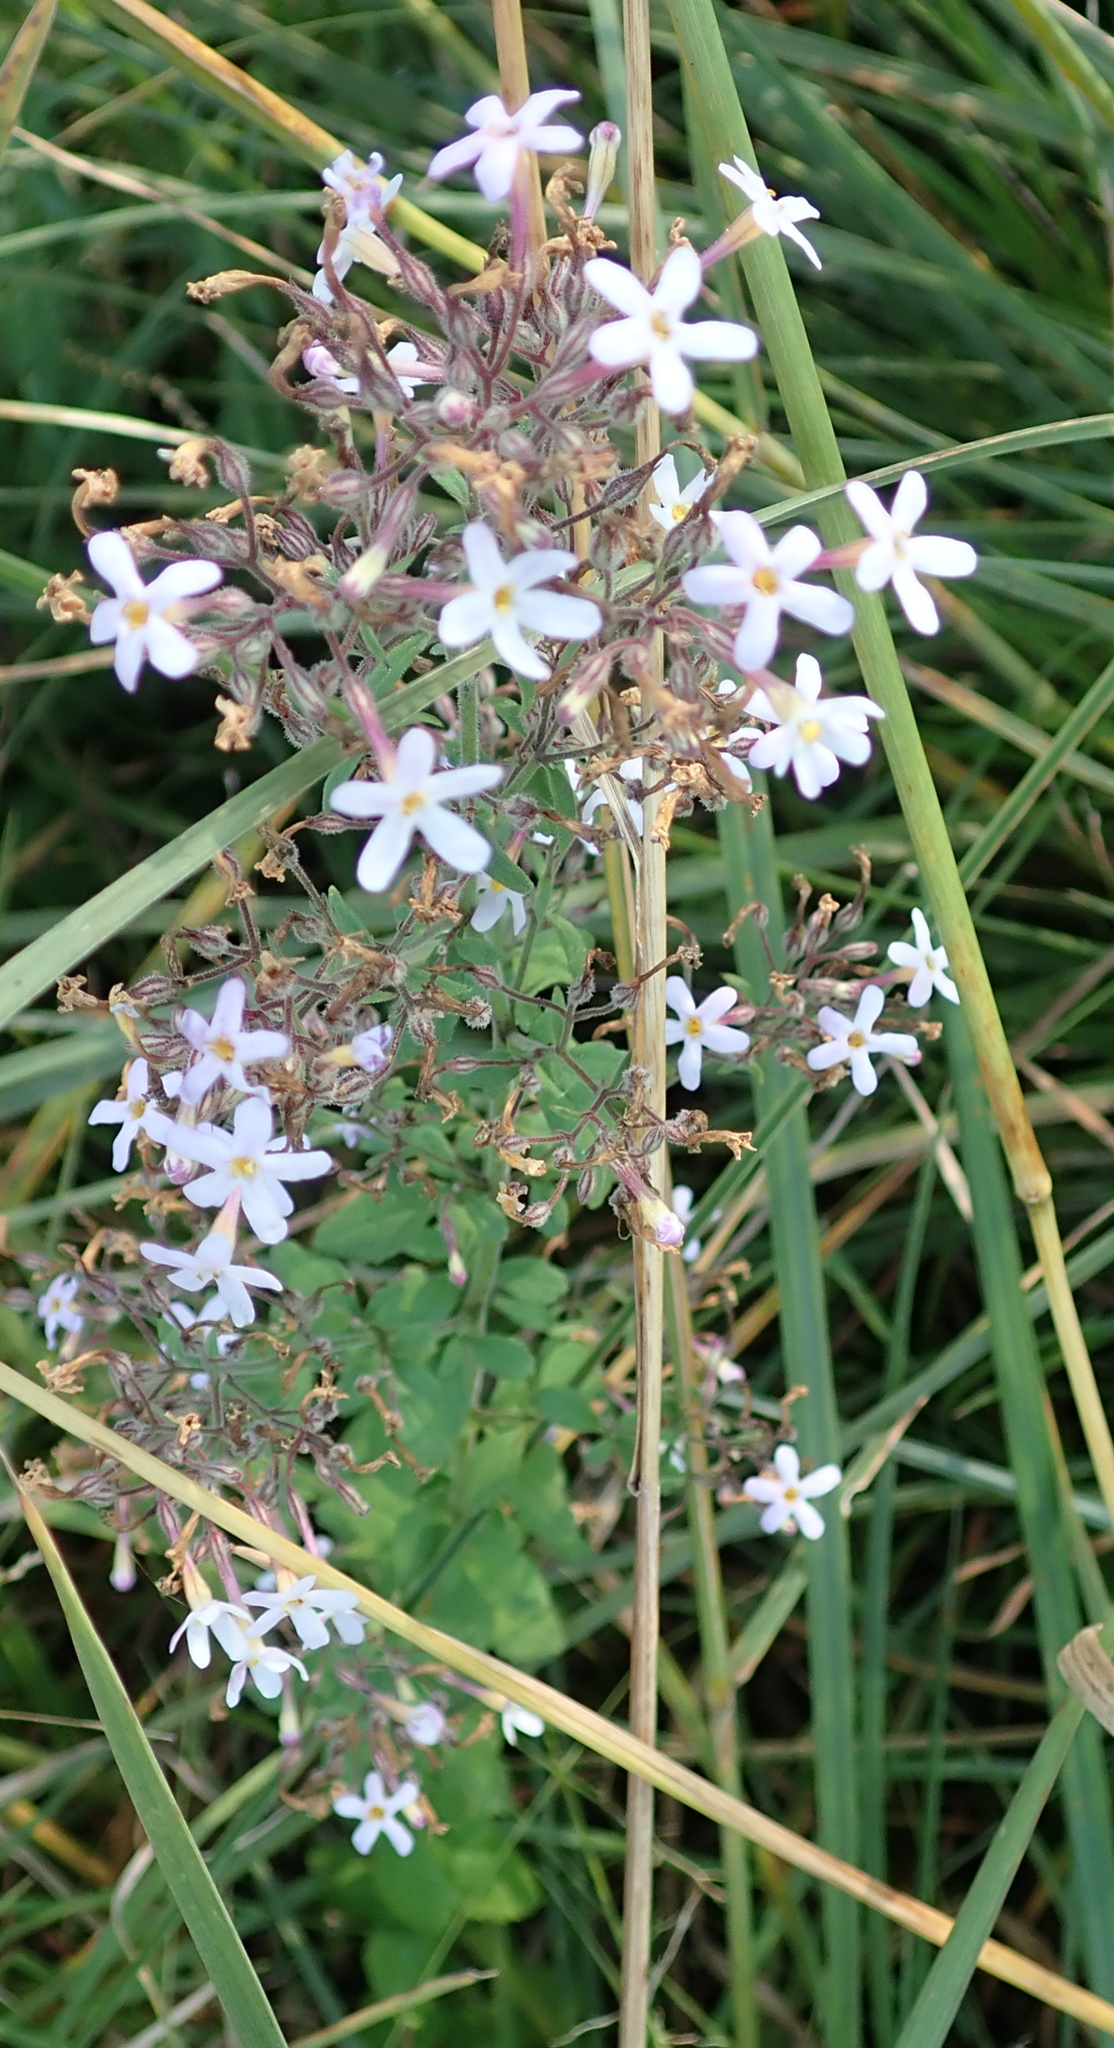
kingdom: Plantae
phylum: Tracheophyta
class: Magnoliopsida
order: Lamiales
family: Scrophulariaceae
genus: Chaenostoma
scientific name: Chaenostoma floribundum
